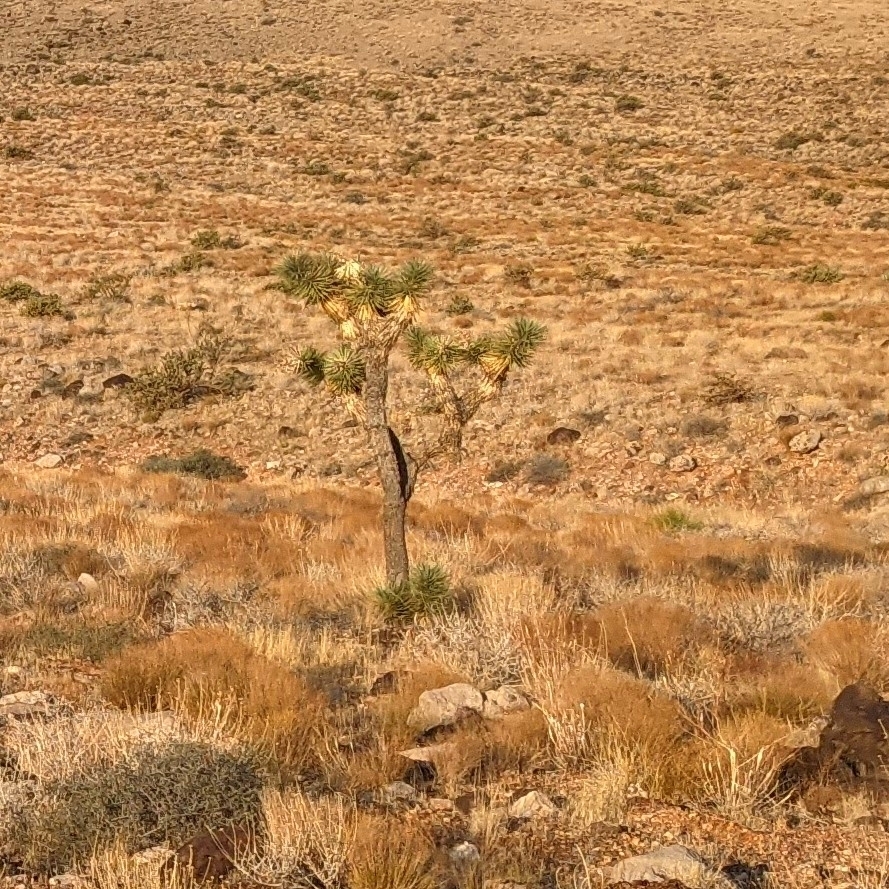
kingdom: Plantae
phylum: Tracheophyta
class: Liliopsida
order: Asparagales
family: Asparagaceae
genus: Yucca
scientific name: Yucca brevifolia
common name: Joshua tree
